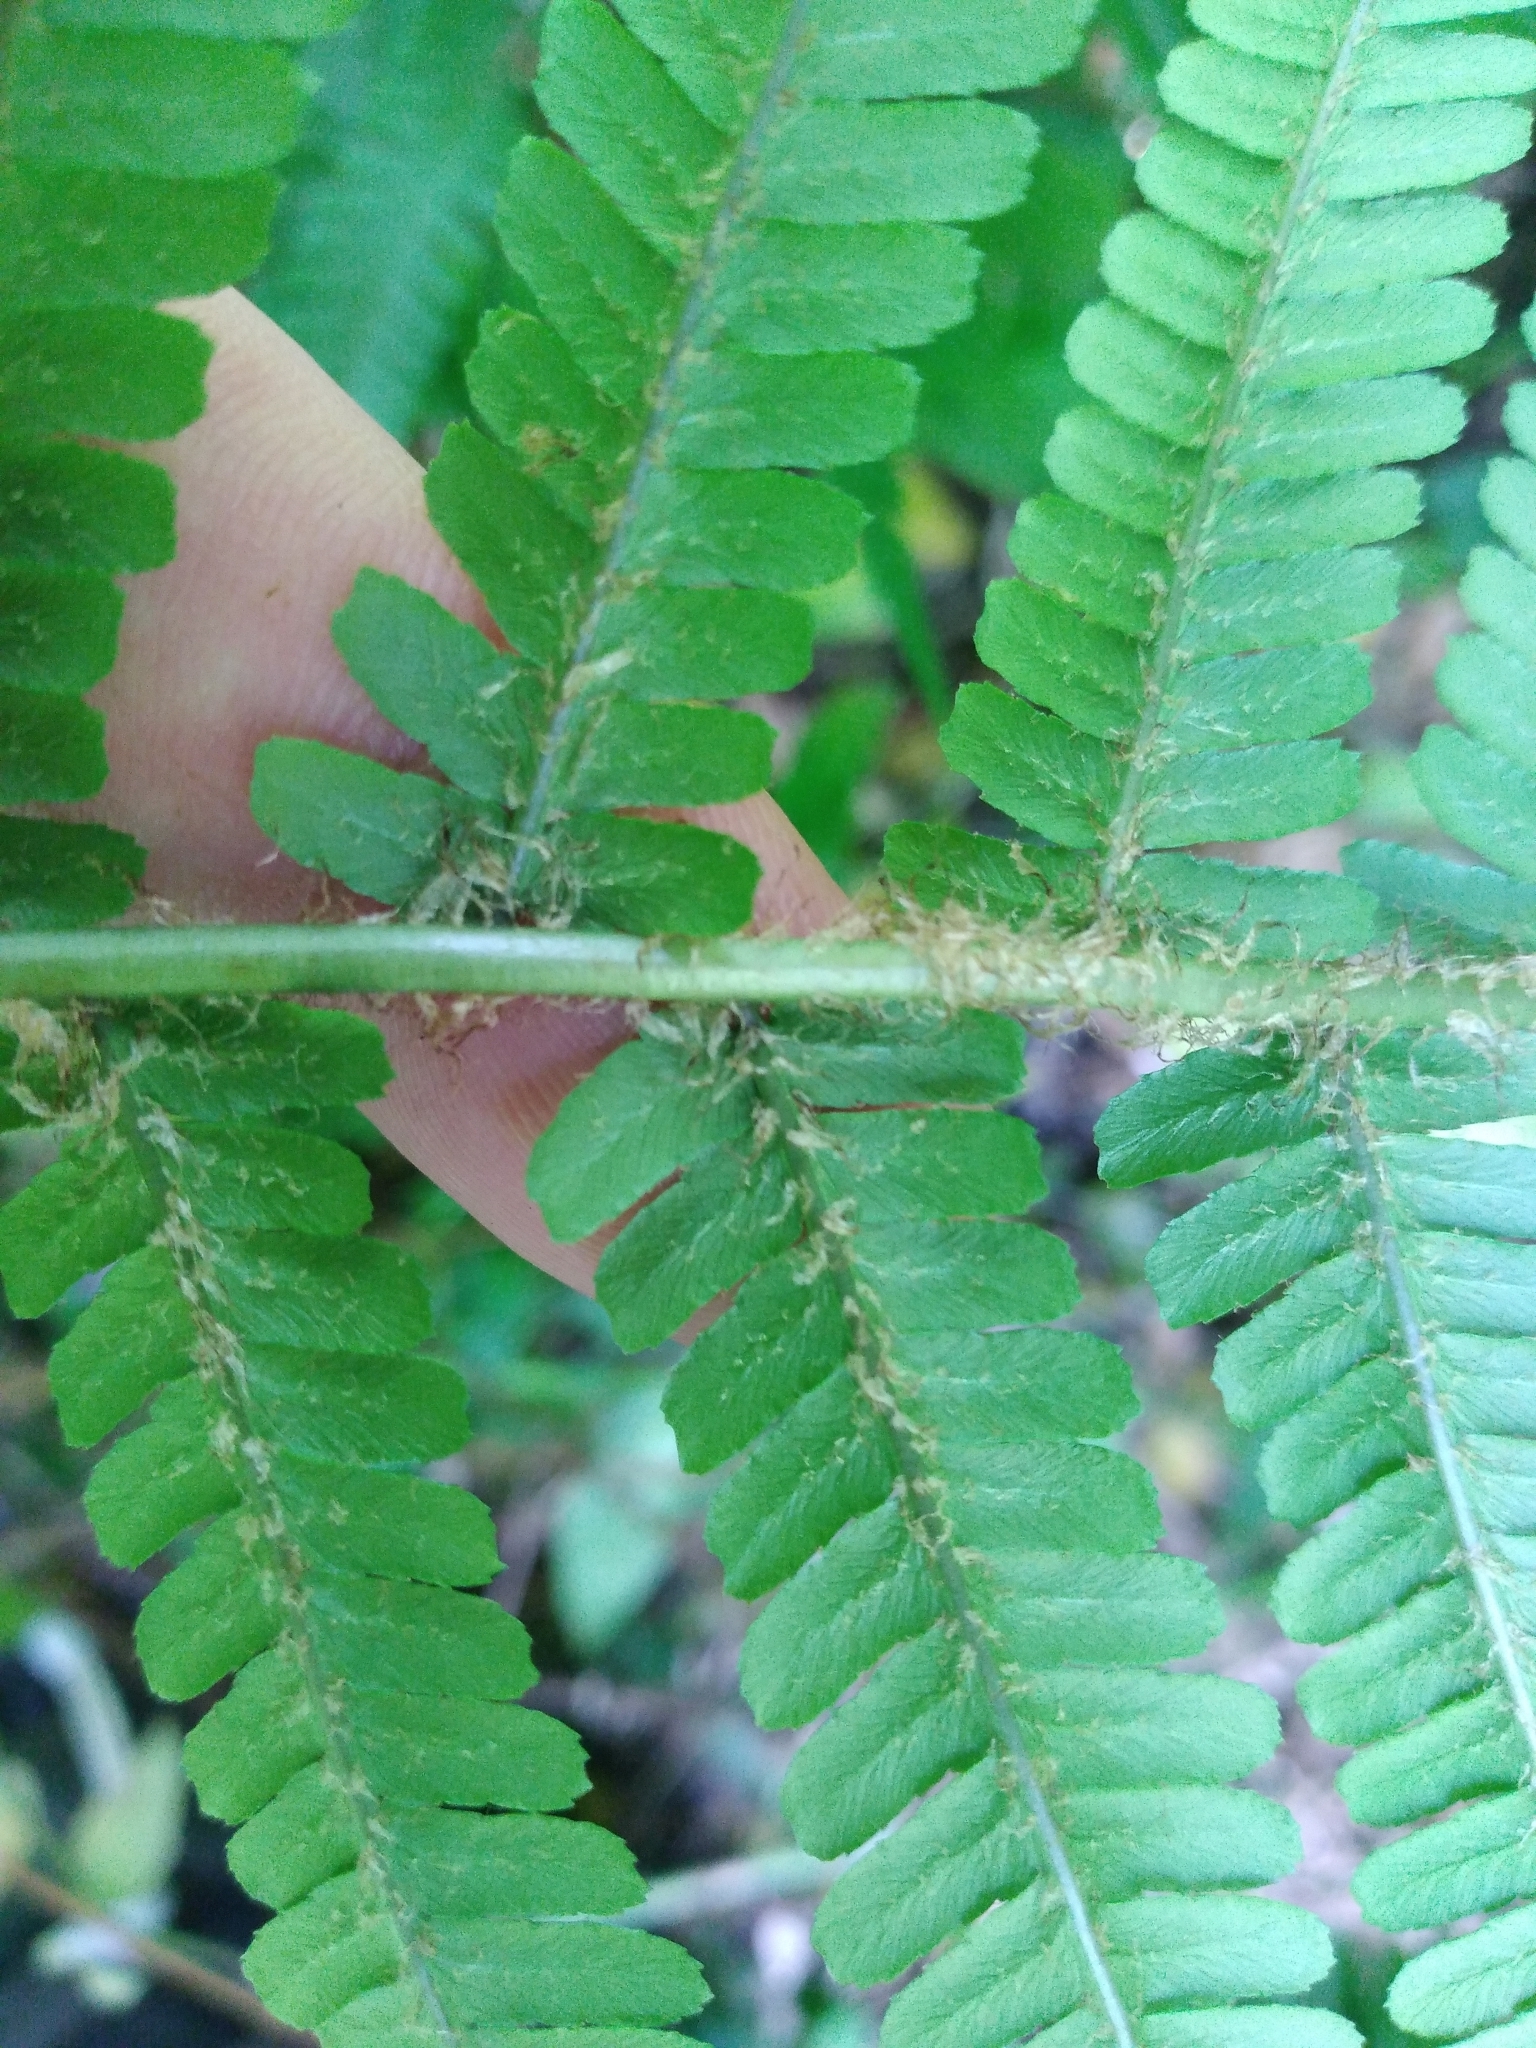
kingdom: Plantae
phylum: Tracheophyta
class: Polypodiopsida
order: Polypodiales
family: Dryopteridaceae
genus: Dryopteris
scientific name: Dryopteris affinis
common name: Scaly male fern
